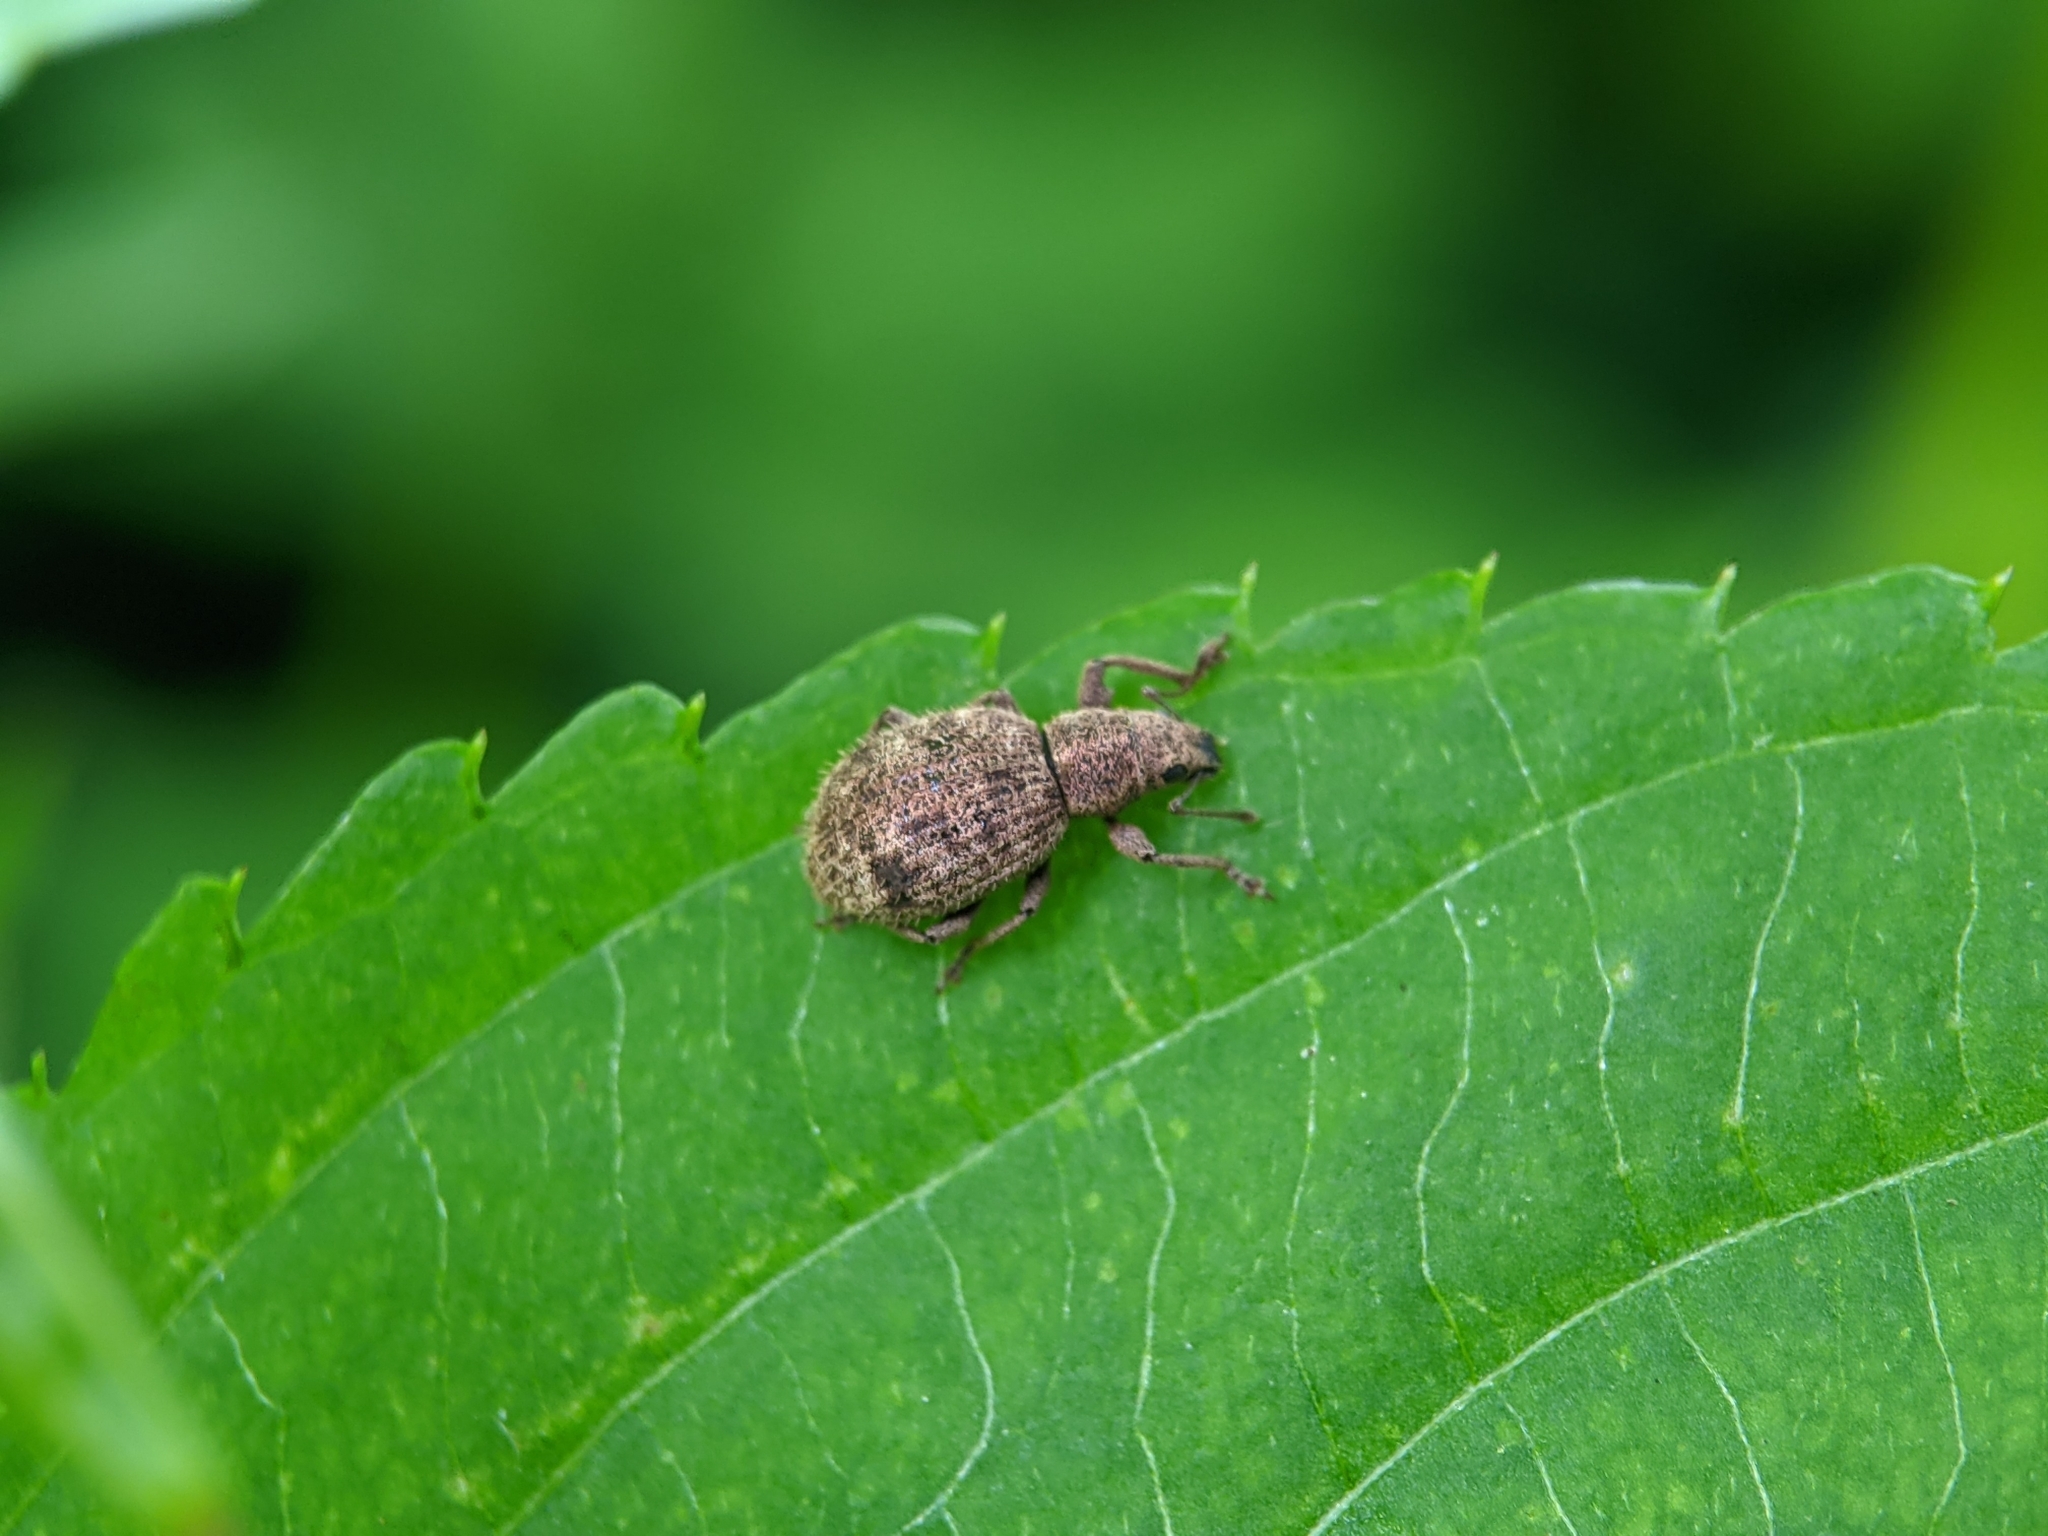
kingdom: Animalia
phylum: Arthropoda
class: Insecta
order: Coleoptera
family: Curculionidae
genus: Sciaphilus
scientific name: Sciaphilus asperatus
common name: Weevil
